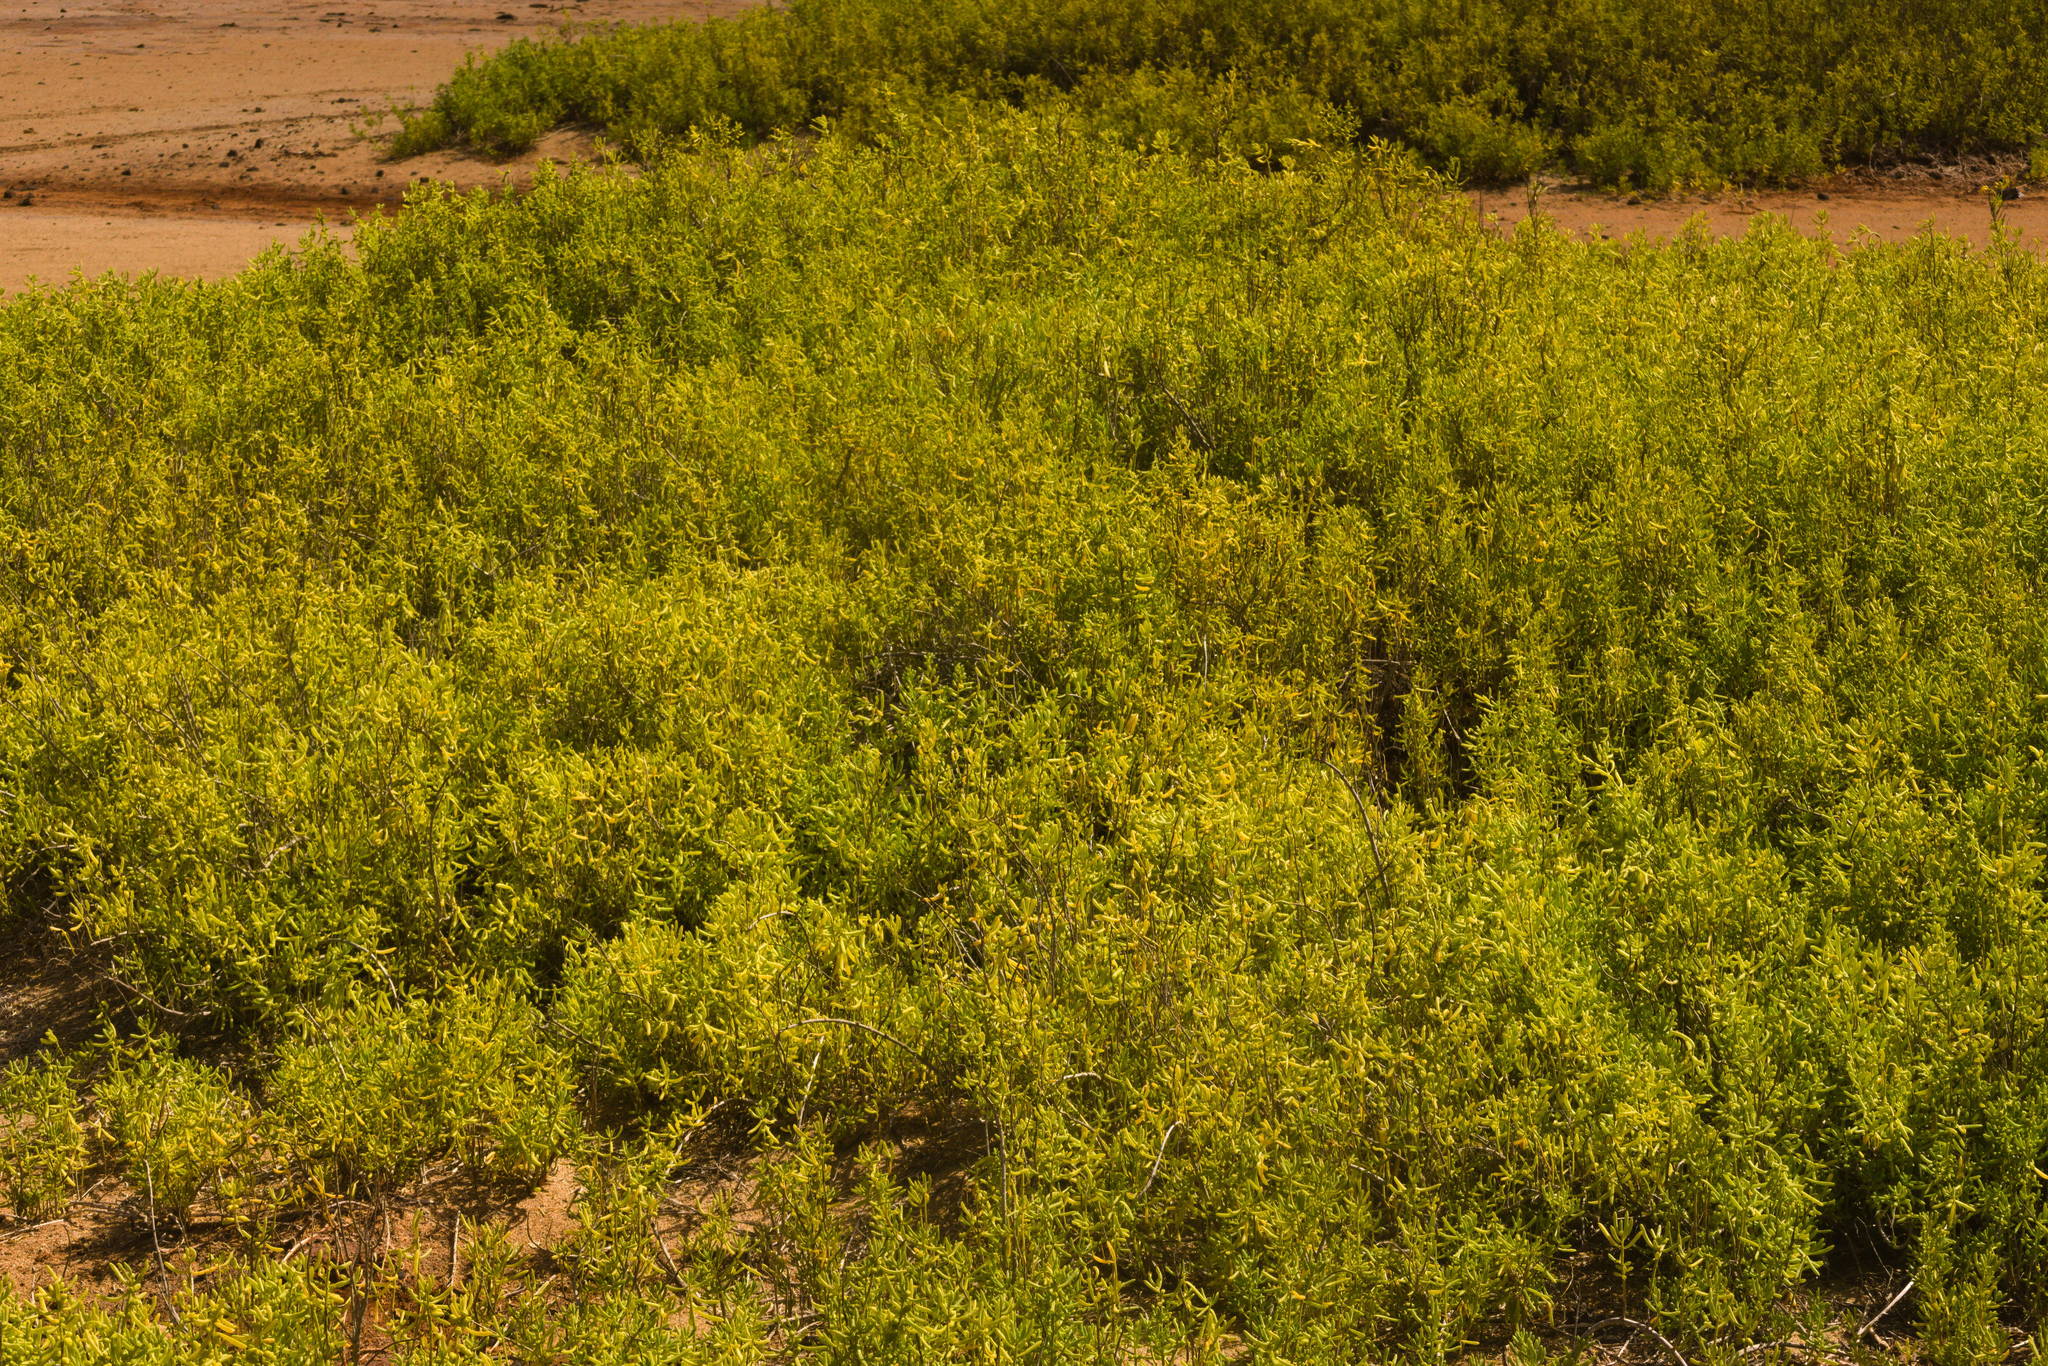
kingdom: Plantae
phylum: Tracheophyta
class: Magnoliopsida
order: Brassicales
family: Bataceae
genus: Batis
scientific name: Batis maritima
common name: Turtleweed
